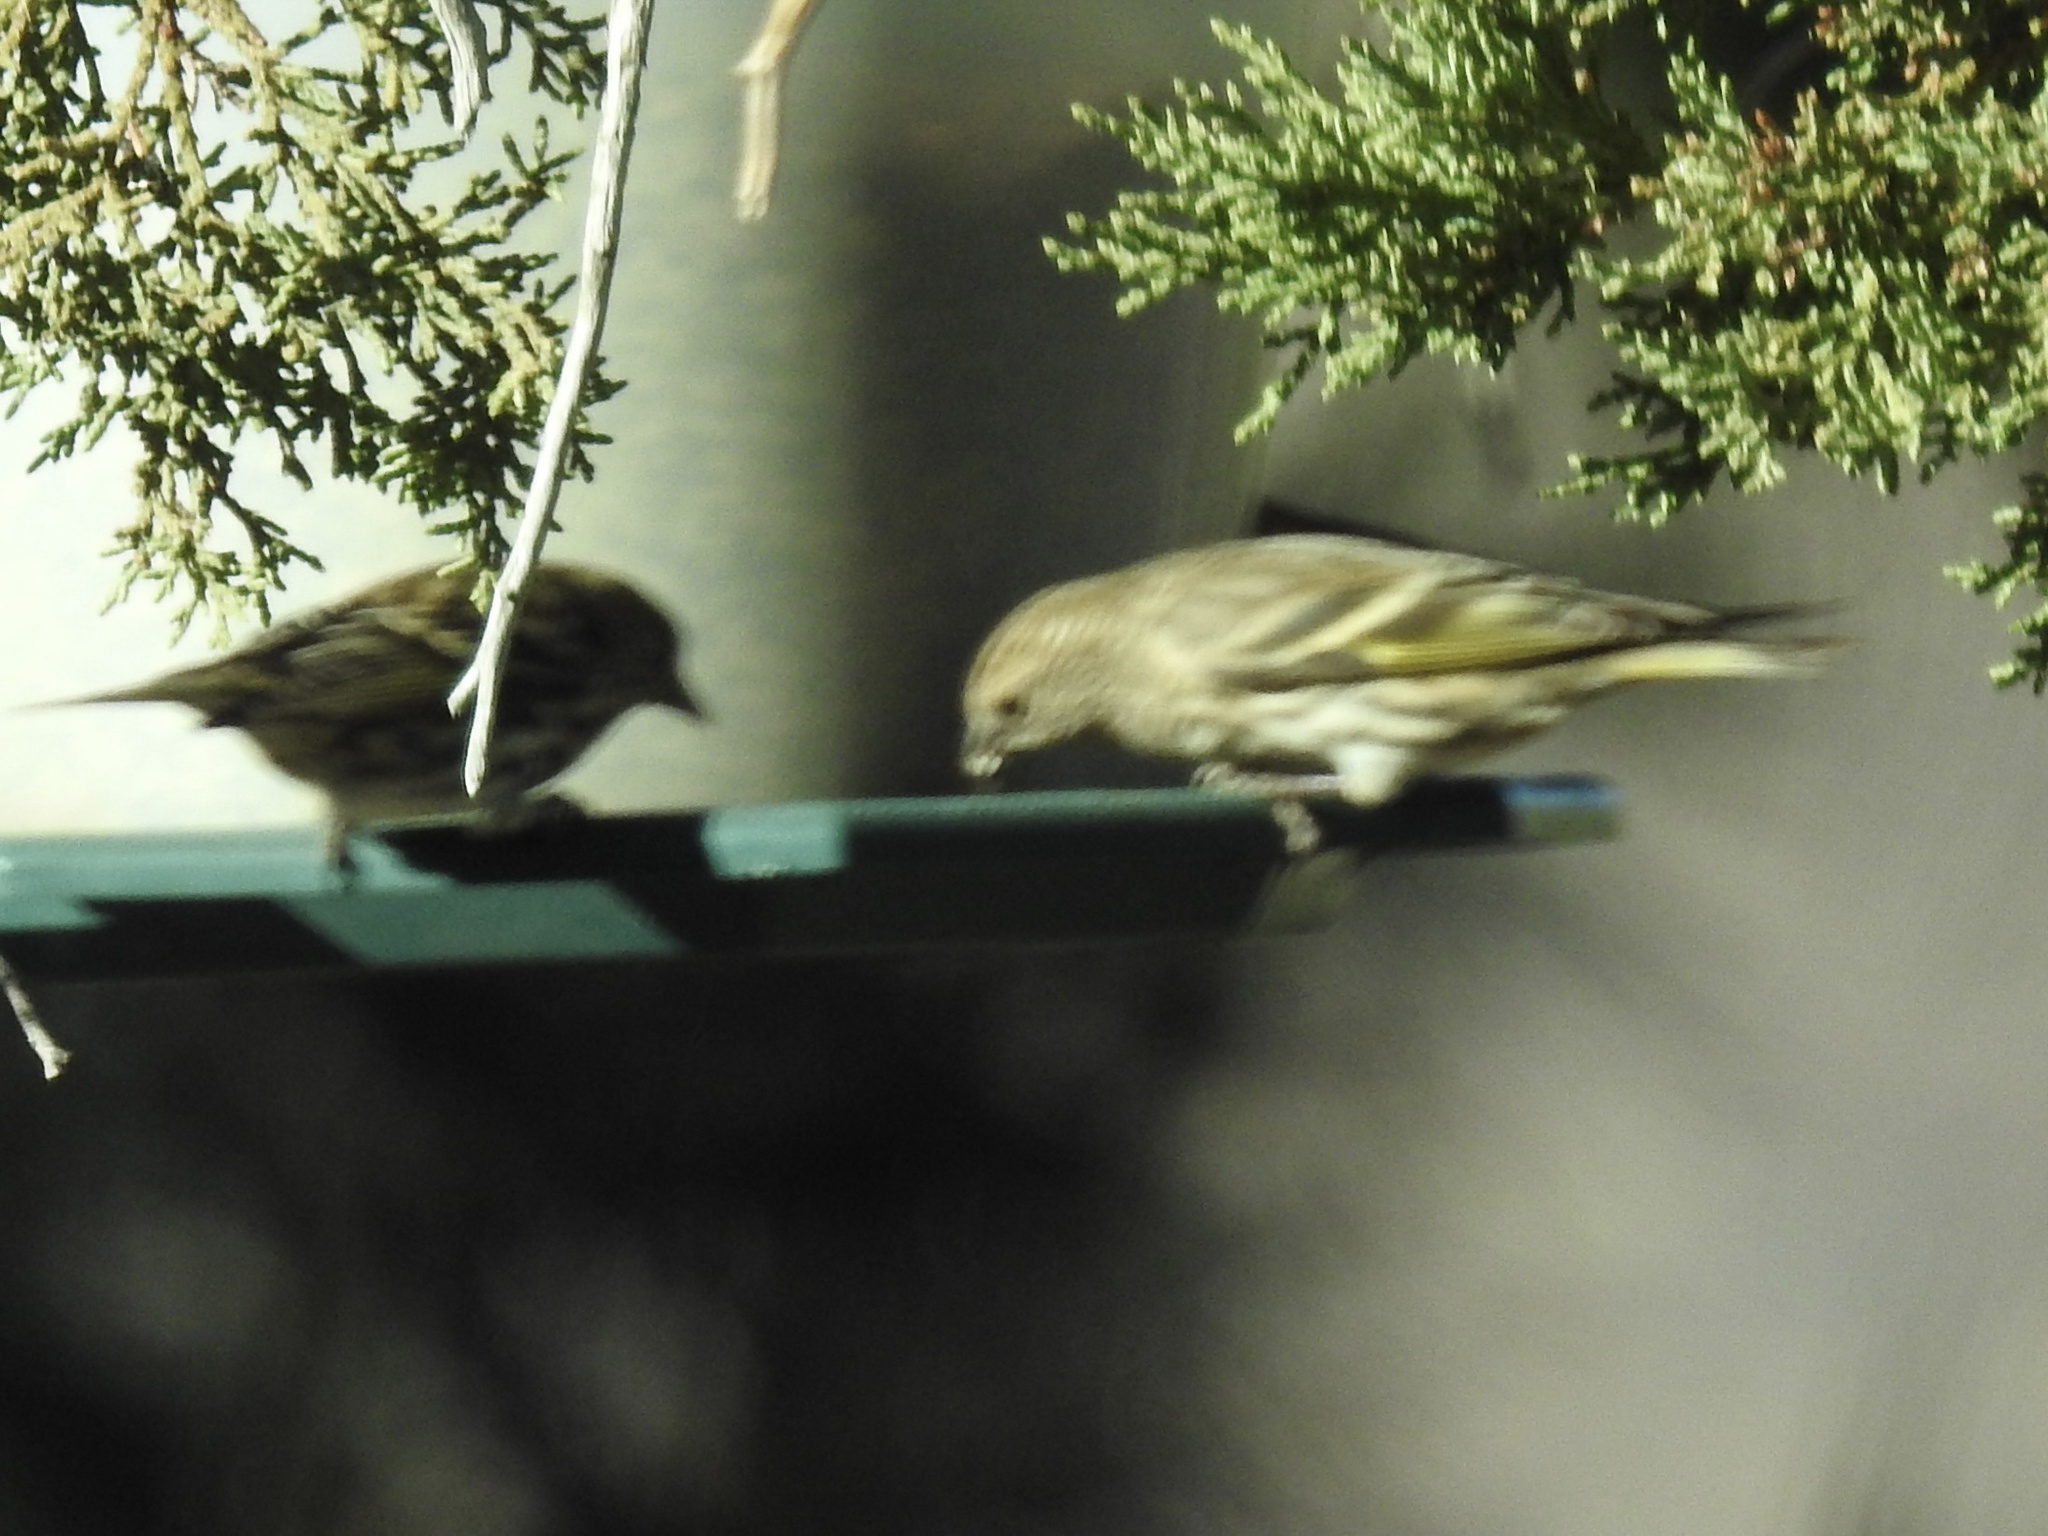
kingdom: Animalia
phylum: Chordata
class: Aves
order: Passeriformes
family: Fringillidae
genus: Spinus
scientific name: Spinus pinus
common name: Pine siskin
